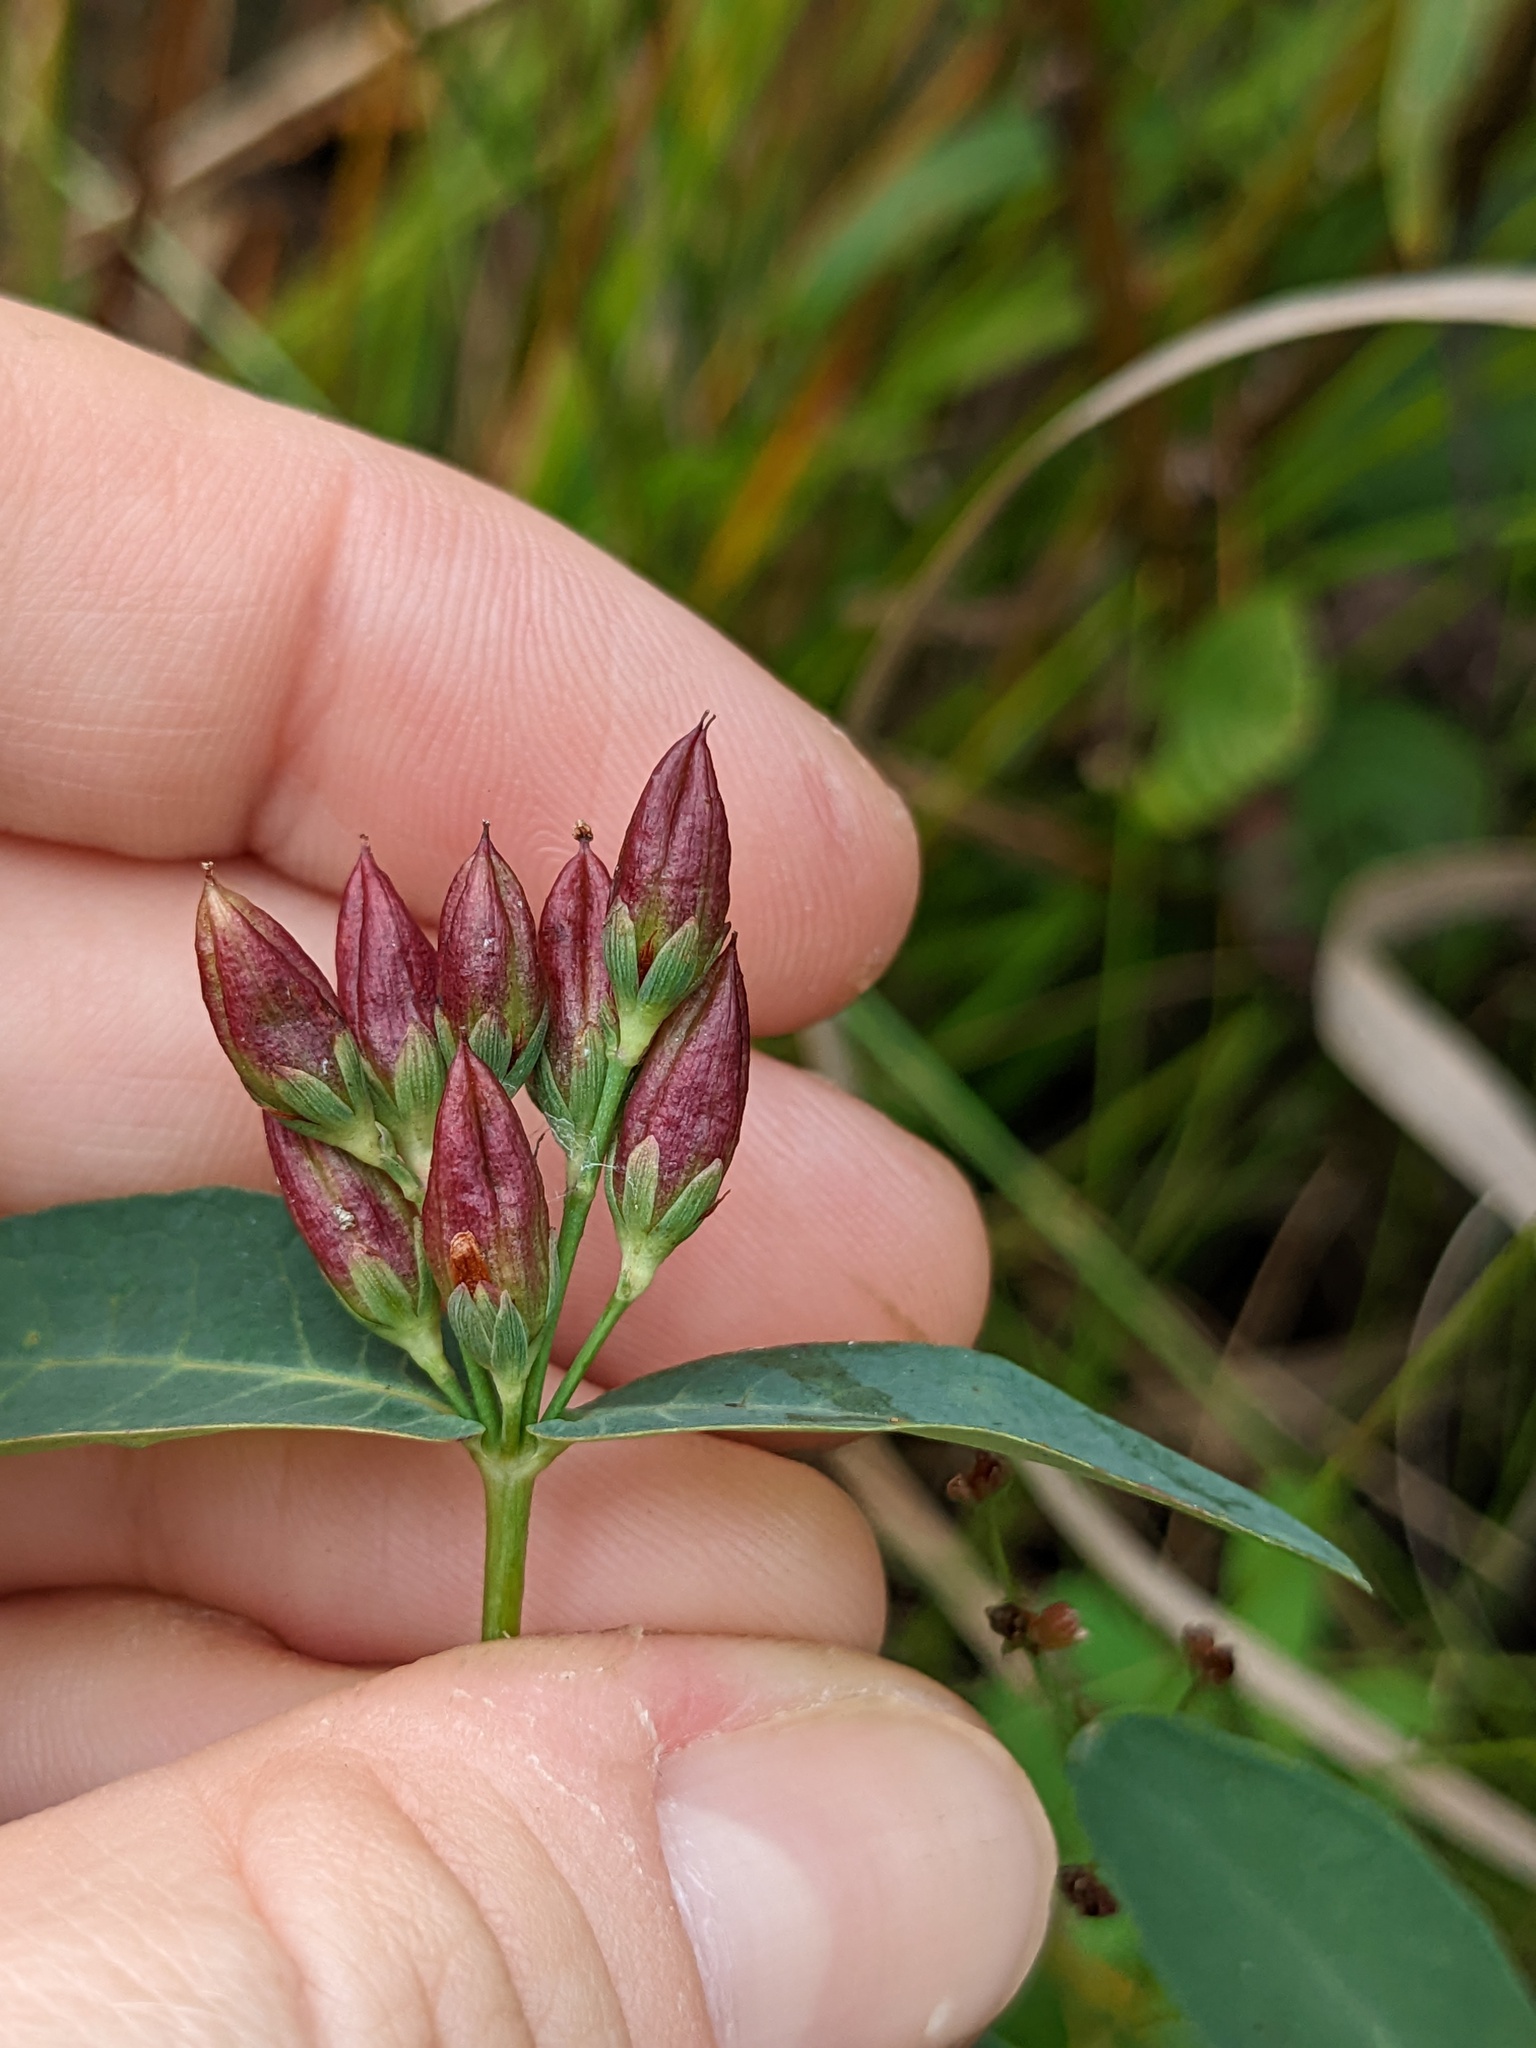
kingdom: Plantae
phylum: Tracheophyta
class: Magnoliopsida
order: Malpighiales
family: Hypericaceae
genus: Triadenum
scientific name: Triadenum fraseri
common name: Fraser's marsh st. johnswort
